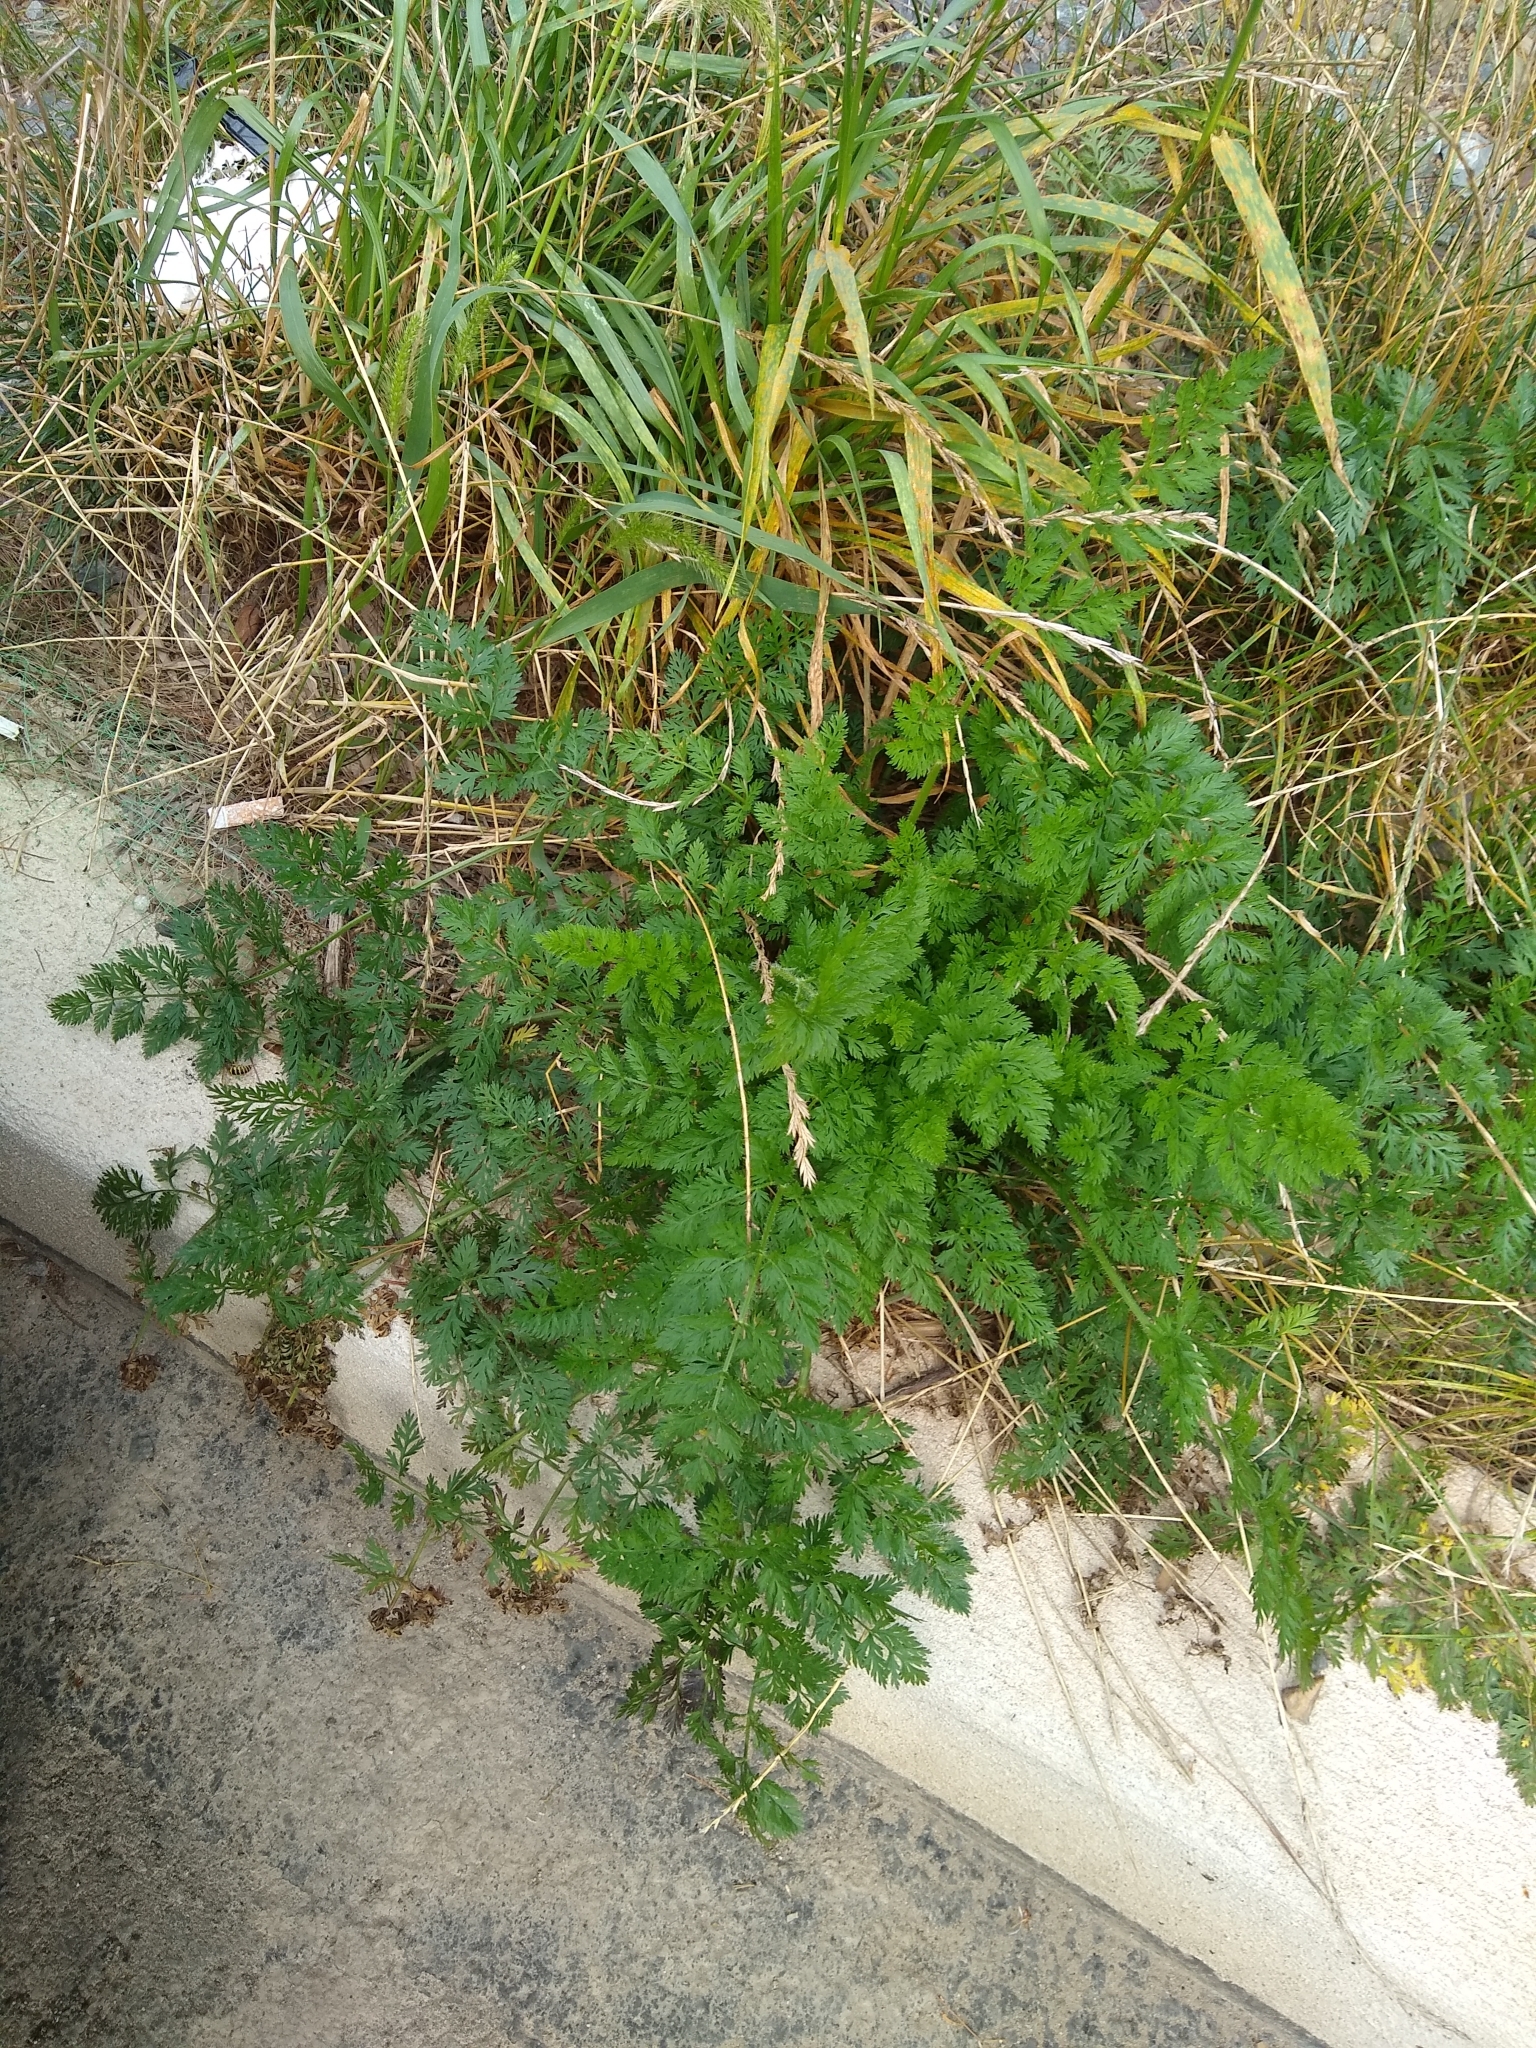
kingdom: Plantae
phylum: Tracheophyta
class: Magnoliopsida
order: Apiales
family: Apiaceae
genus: Daucus
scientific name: Daucus carota
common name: Wild carrot
